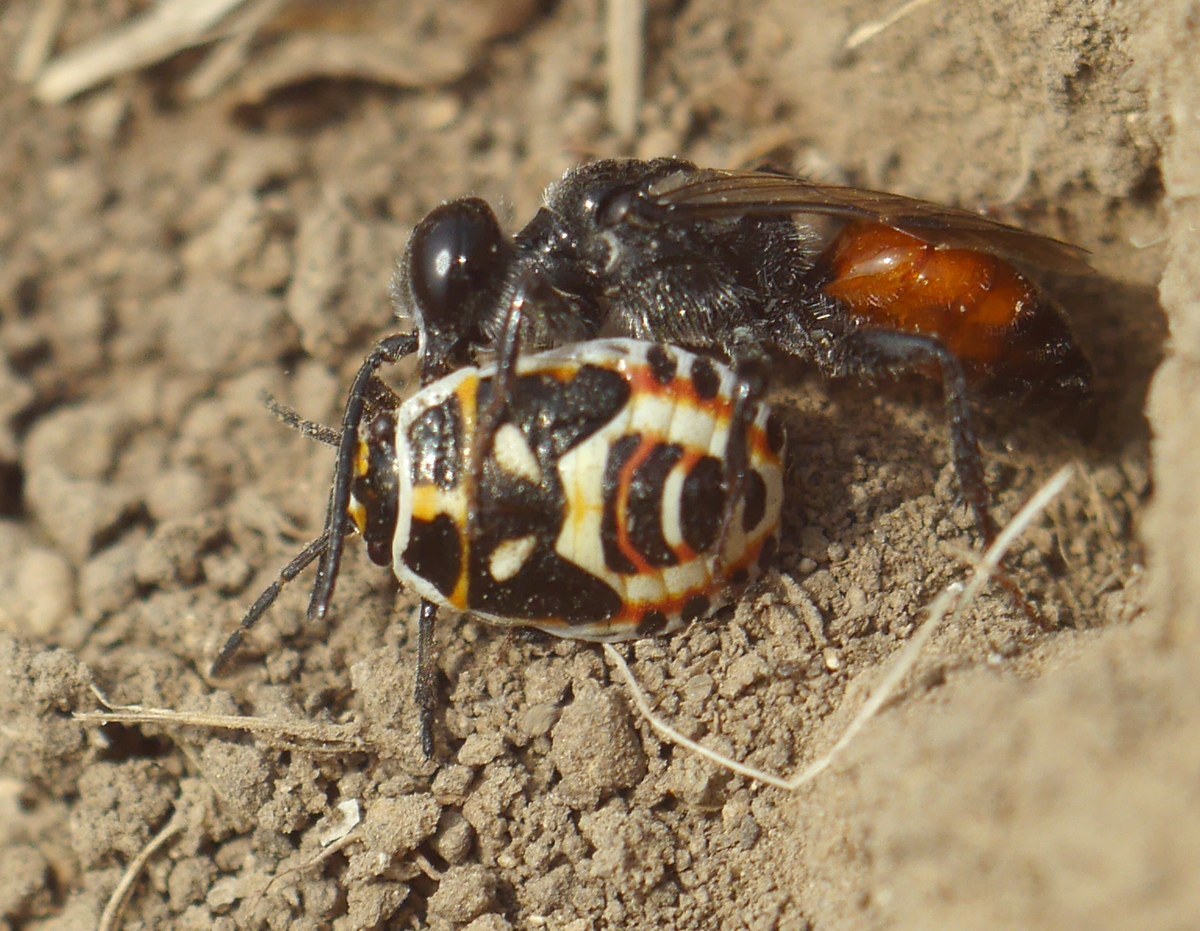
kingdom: Animalia
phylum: Arthropoda
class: Insecta
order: Hemiptera
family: Pentatomidae
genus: Eurydema
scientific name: Eurydema ornata
